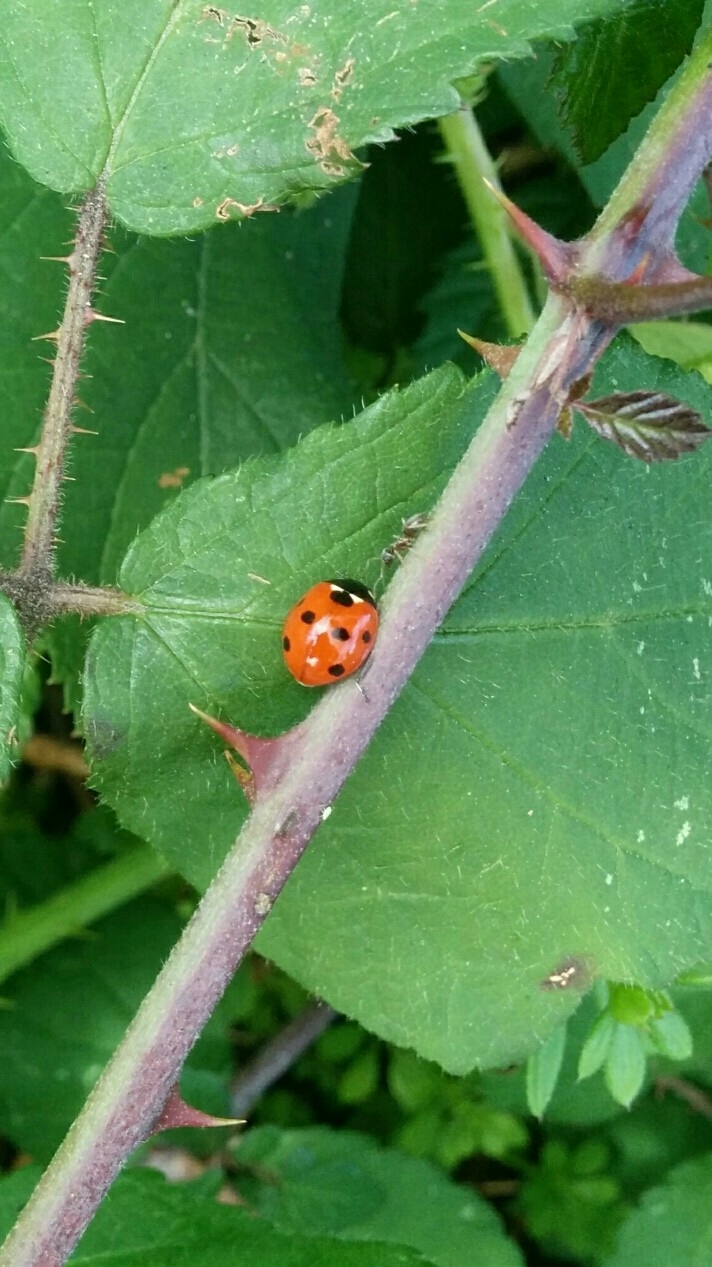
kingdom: Animalia
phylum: Arthropoda
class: Insecta
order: Coleoptera
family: Coccinellidae
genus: Coccinella
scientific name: Coccinella septempunctata
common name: Sevenspotted lady beetle
